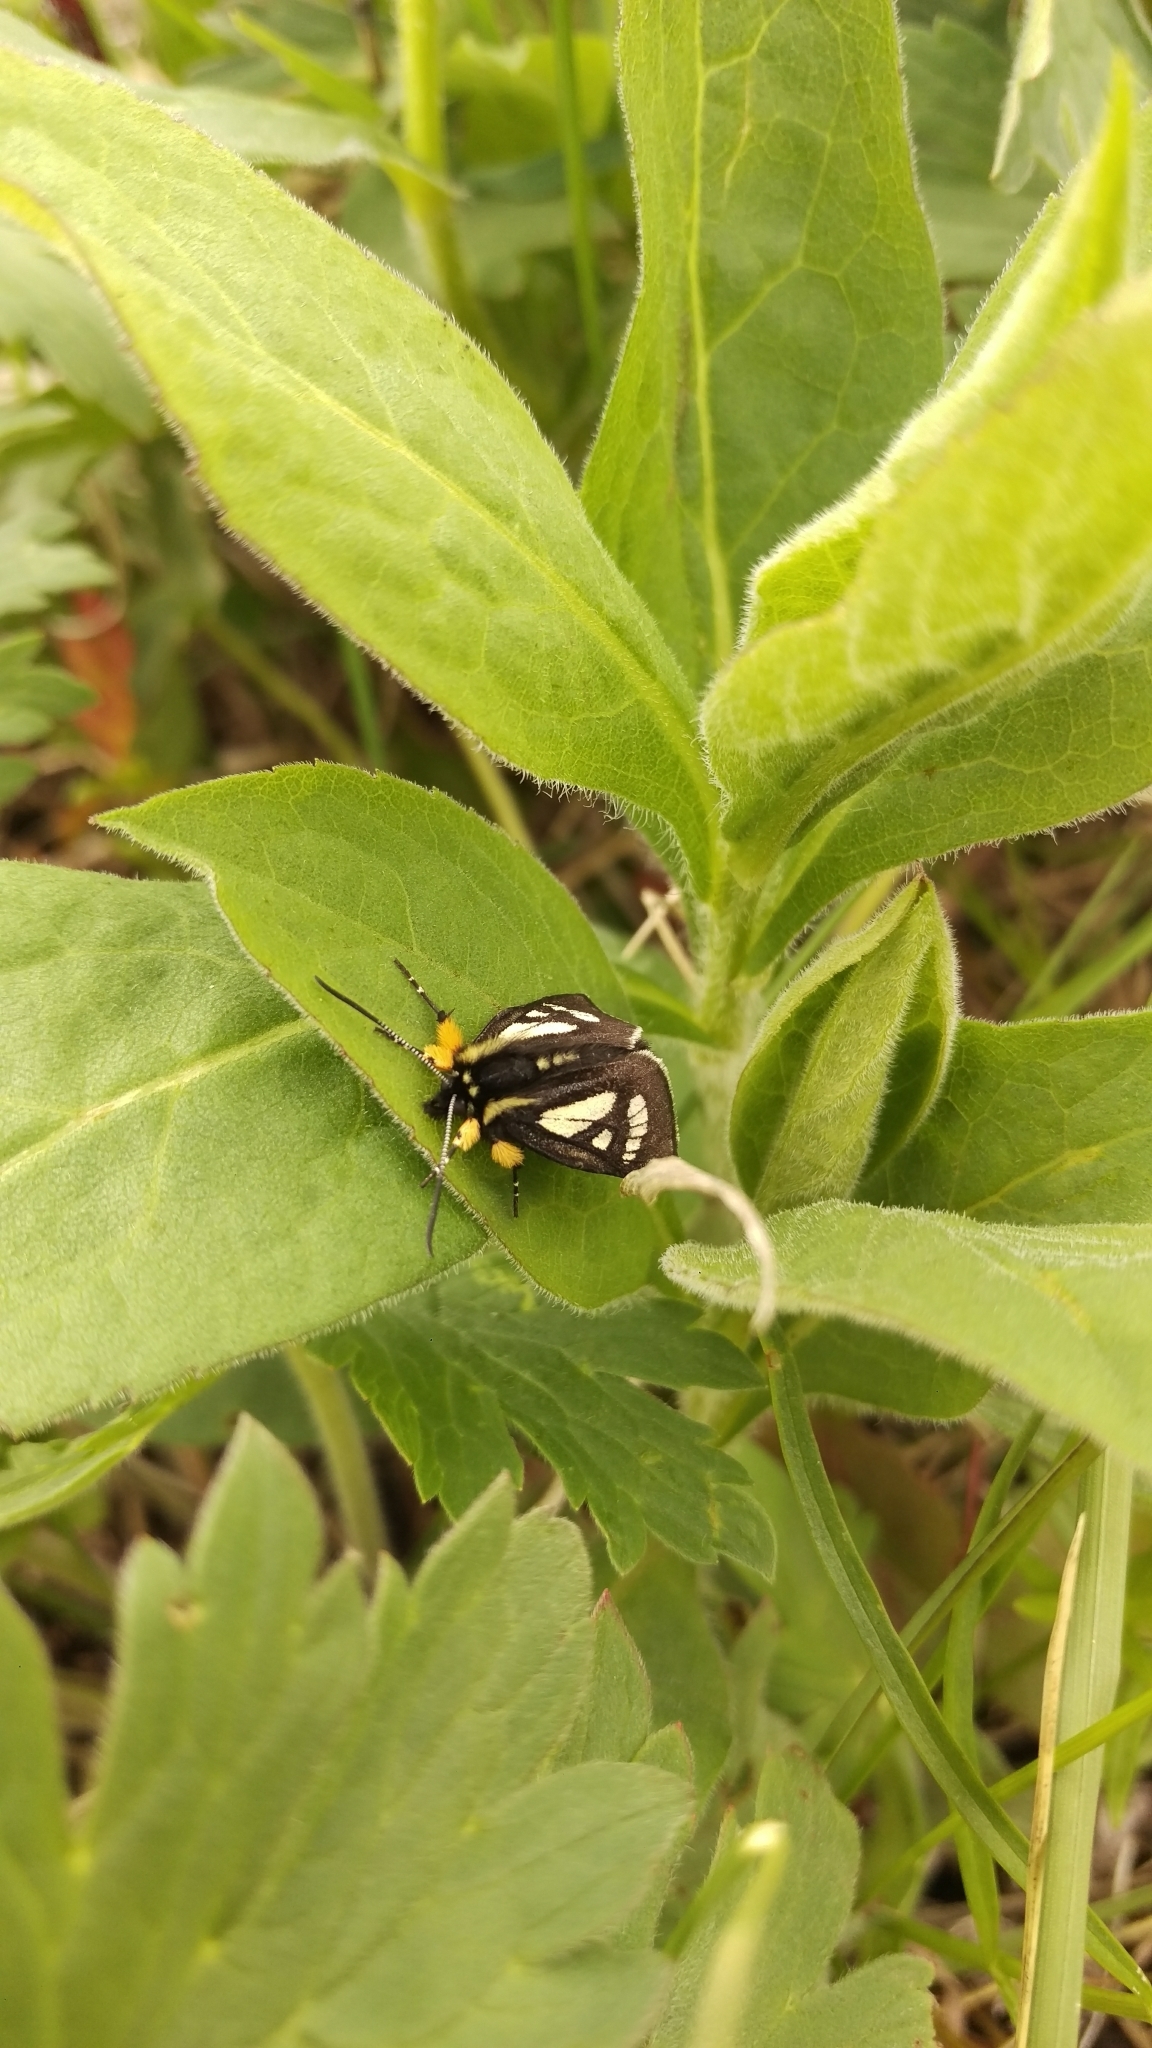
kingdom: Animalia
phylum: Arthropoda
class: Insecta
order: Lepidoptera
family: Noctuidae
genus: Alypia
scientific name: Alypia maccullochii
